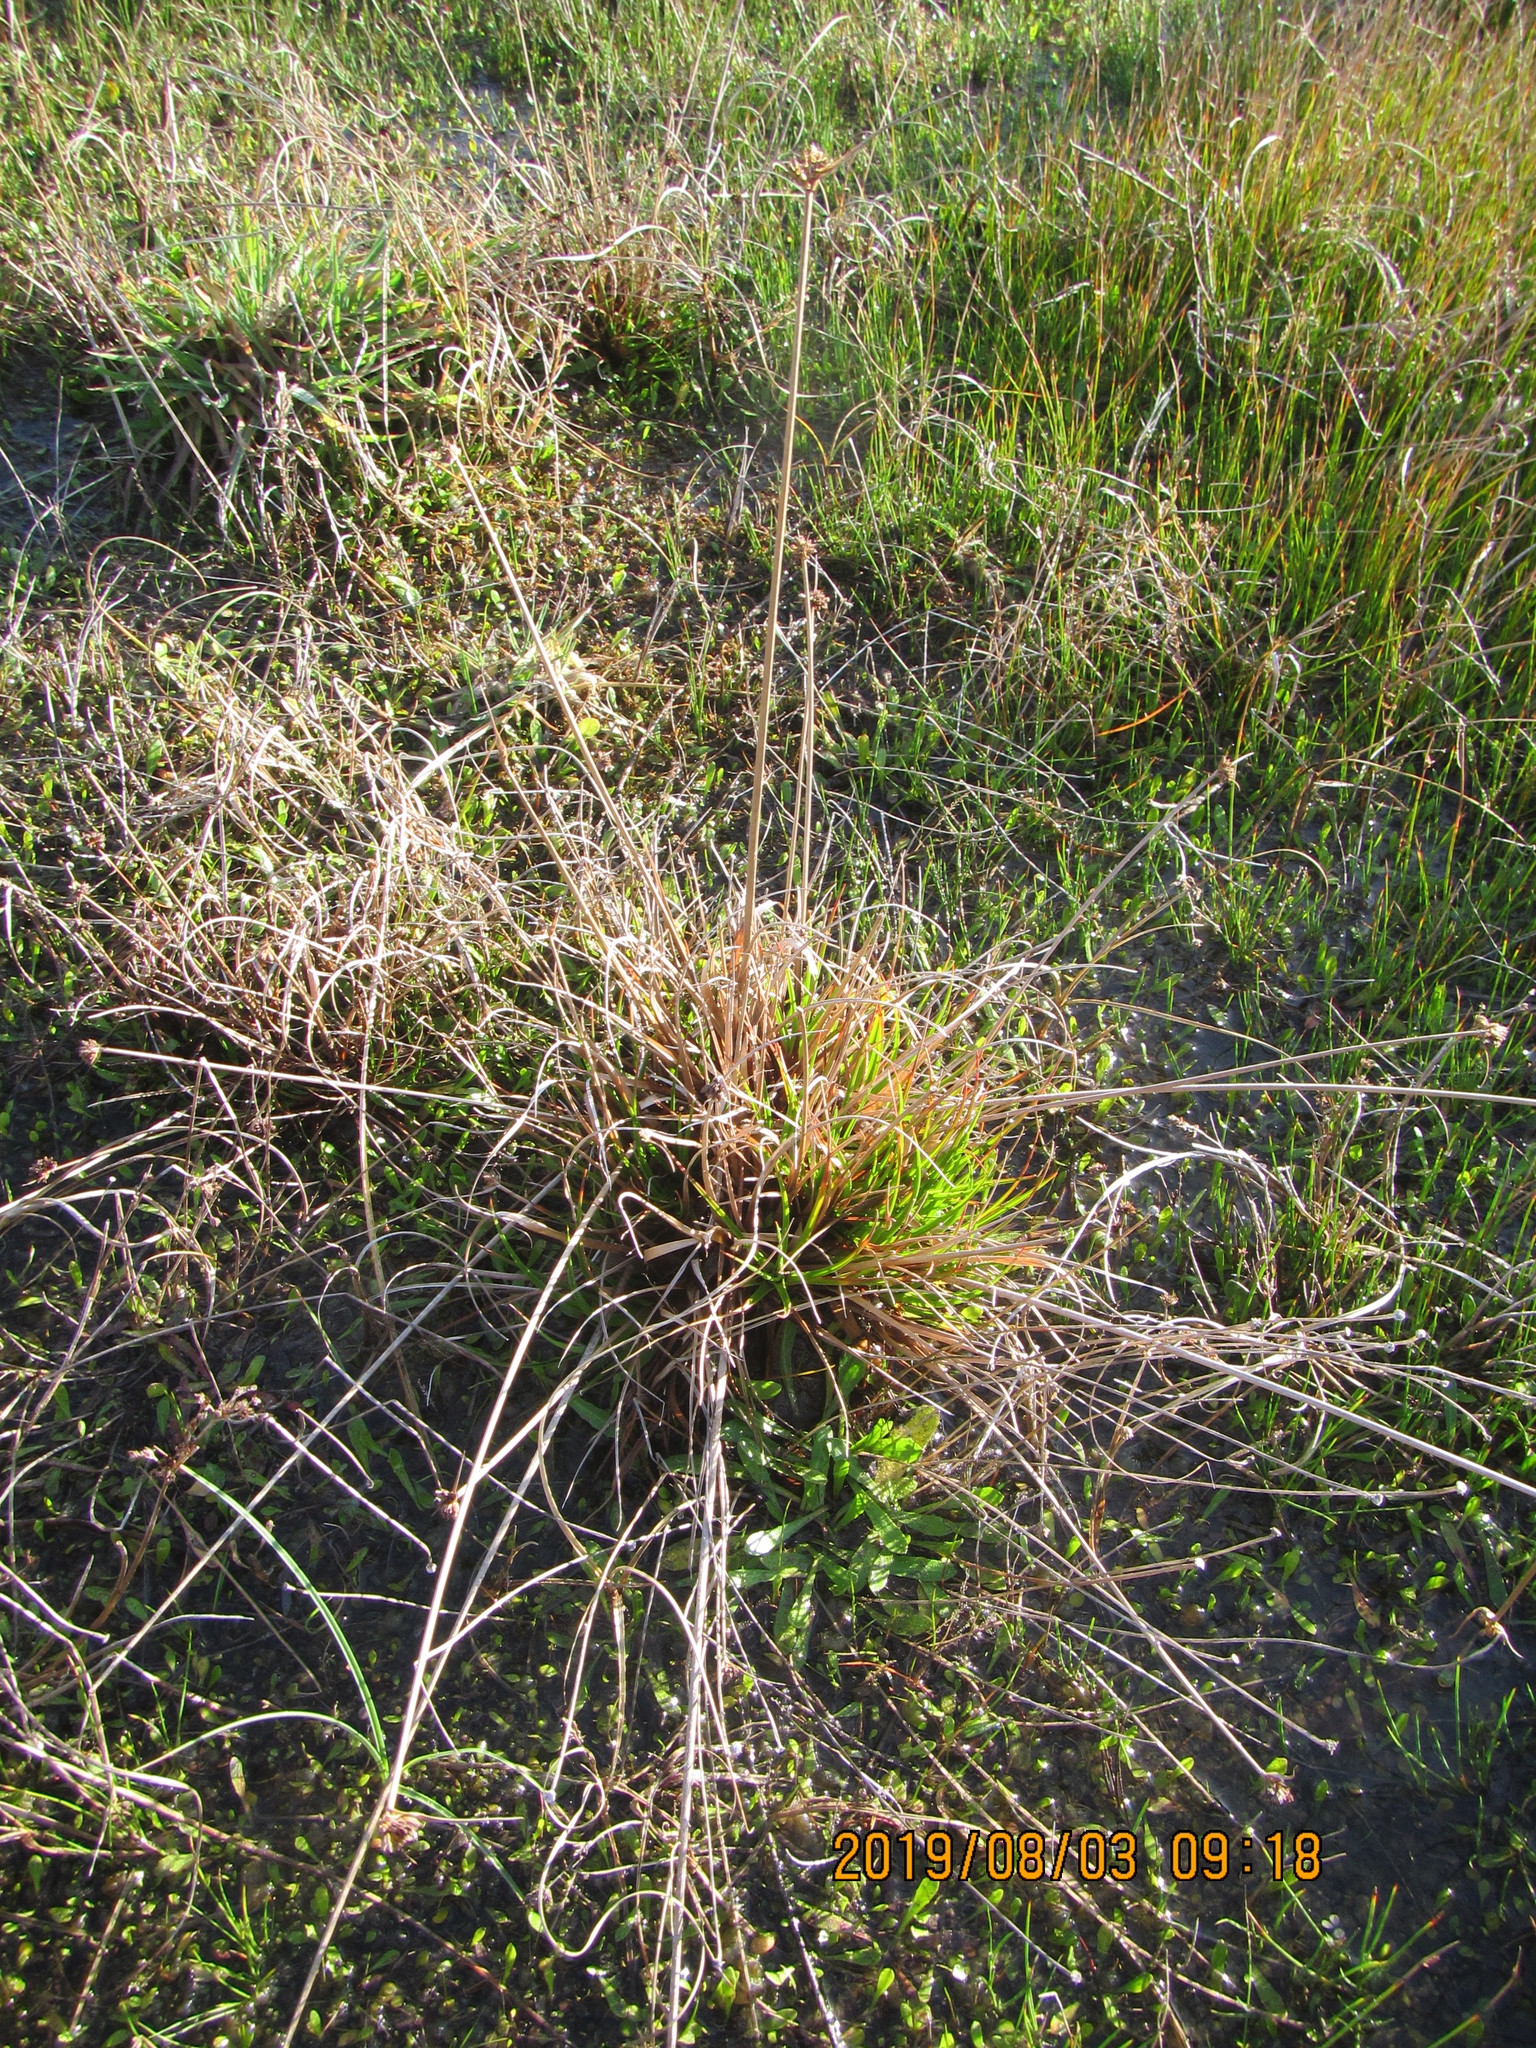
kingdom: Plantae
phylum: Tracheophyta
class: Liliopsida
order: Poales
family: Juncaceae
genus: Juncus
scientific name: Juncus caespiticius
